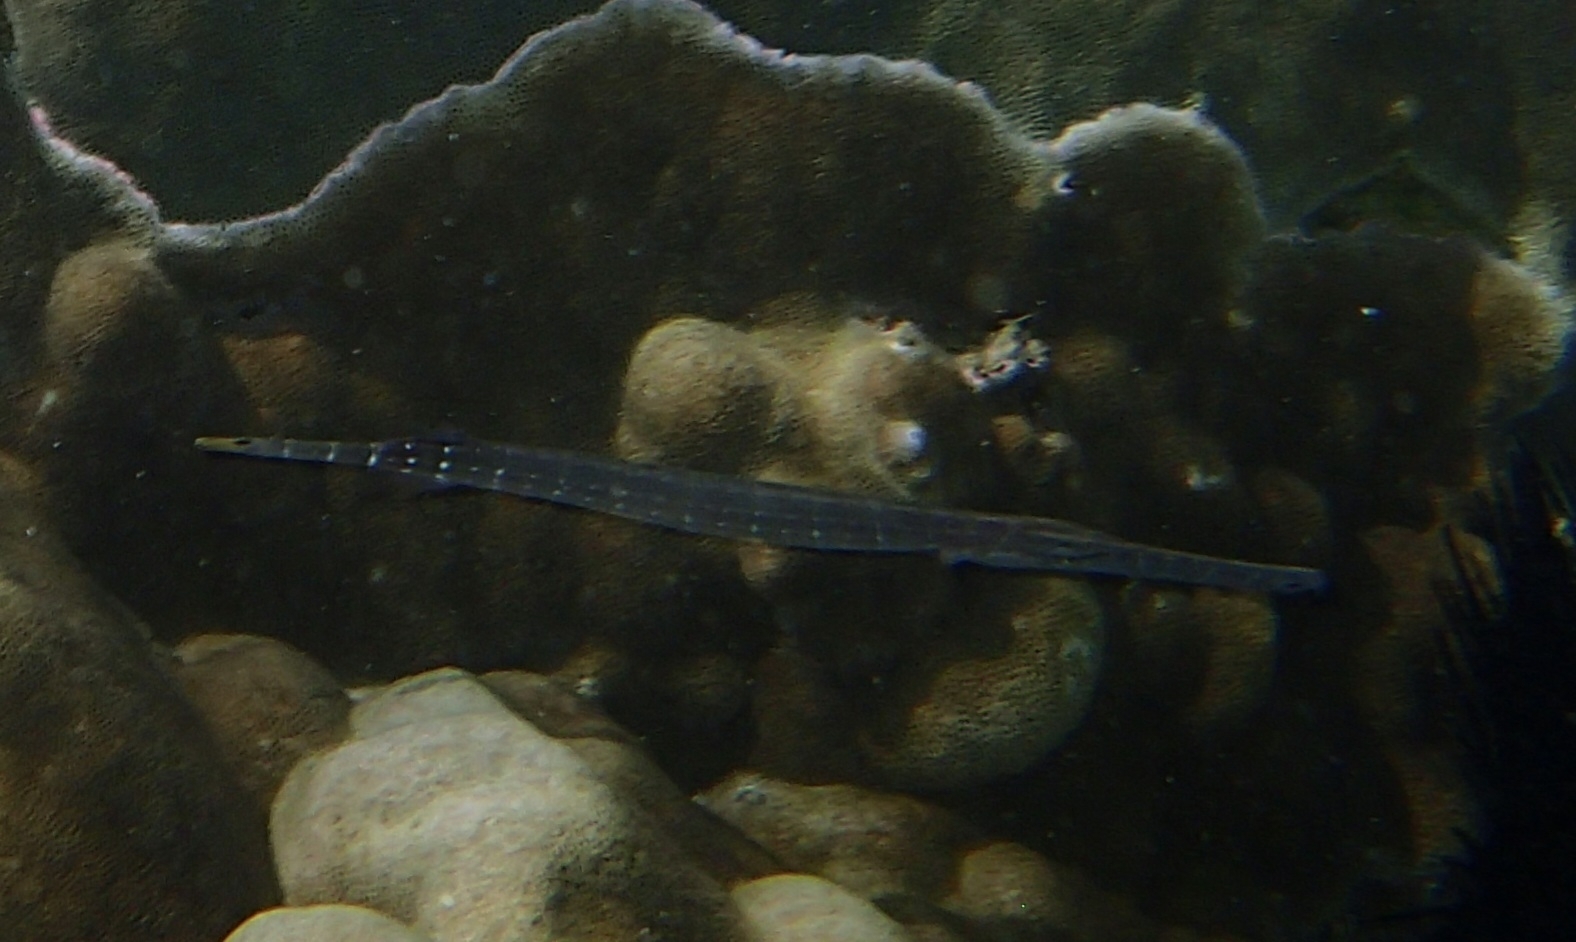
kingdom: Animalia
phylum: Chordata
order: Syngnathiformes
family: Aulostomidae
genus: Aulostomus
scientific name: Aulostomus chinensis
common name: Chinese trumpetfish
